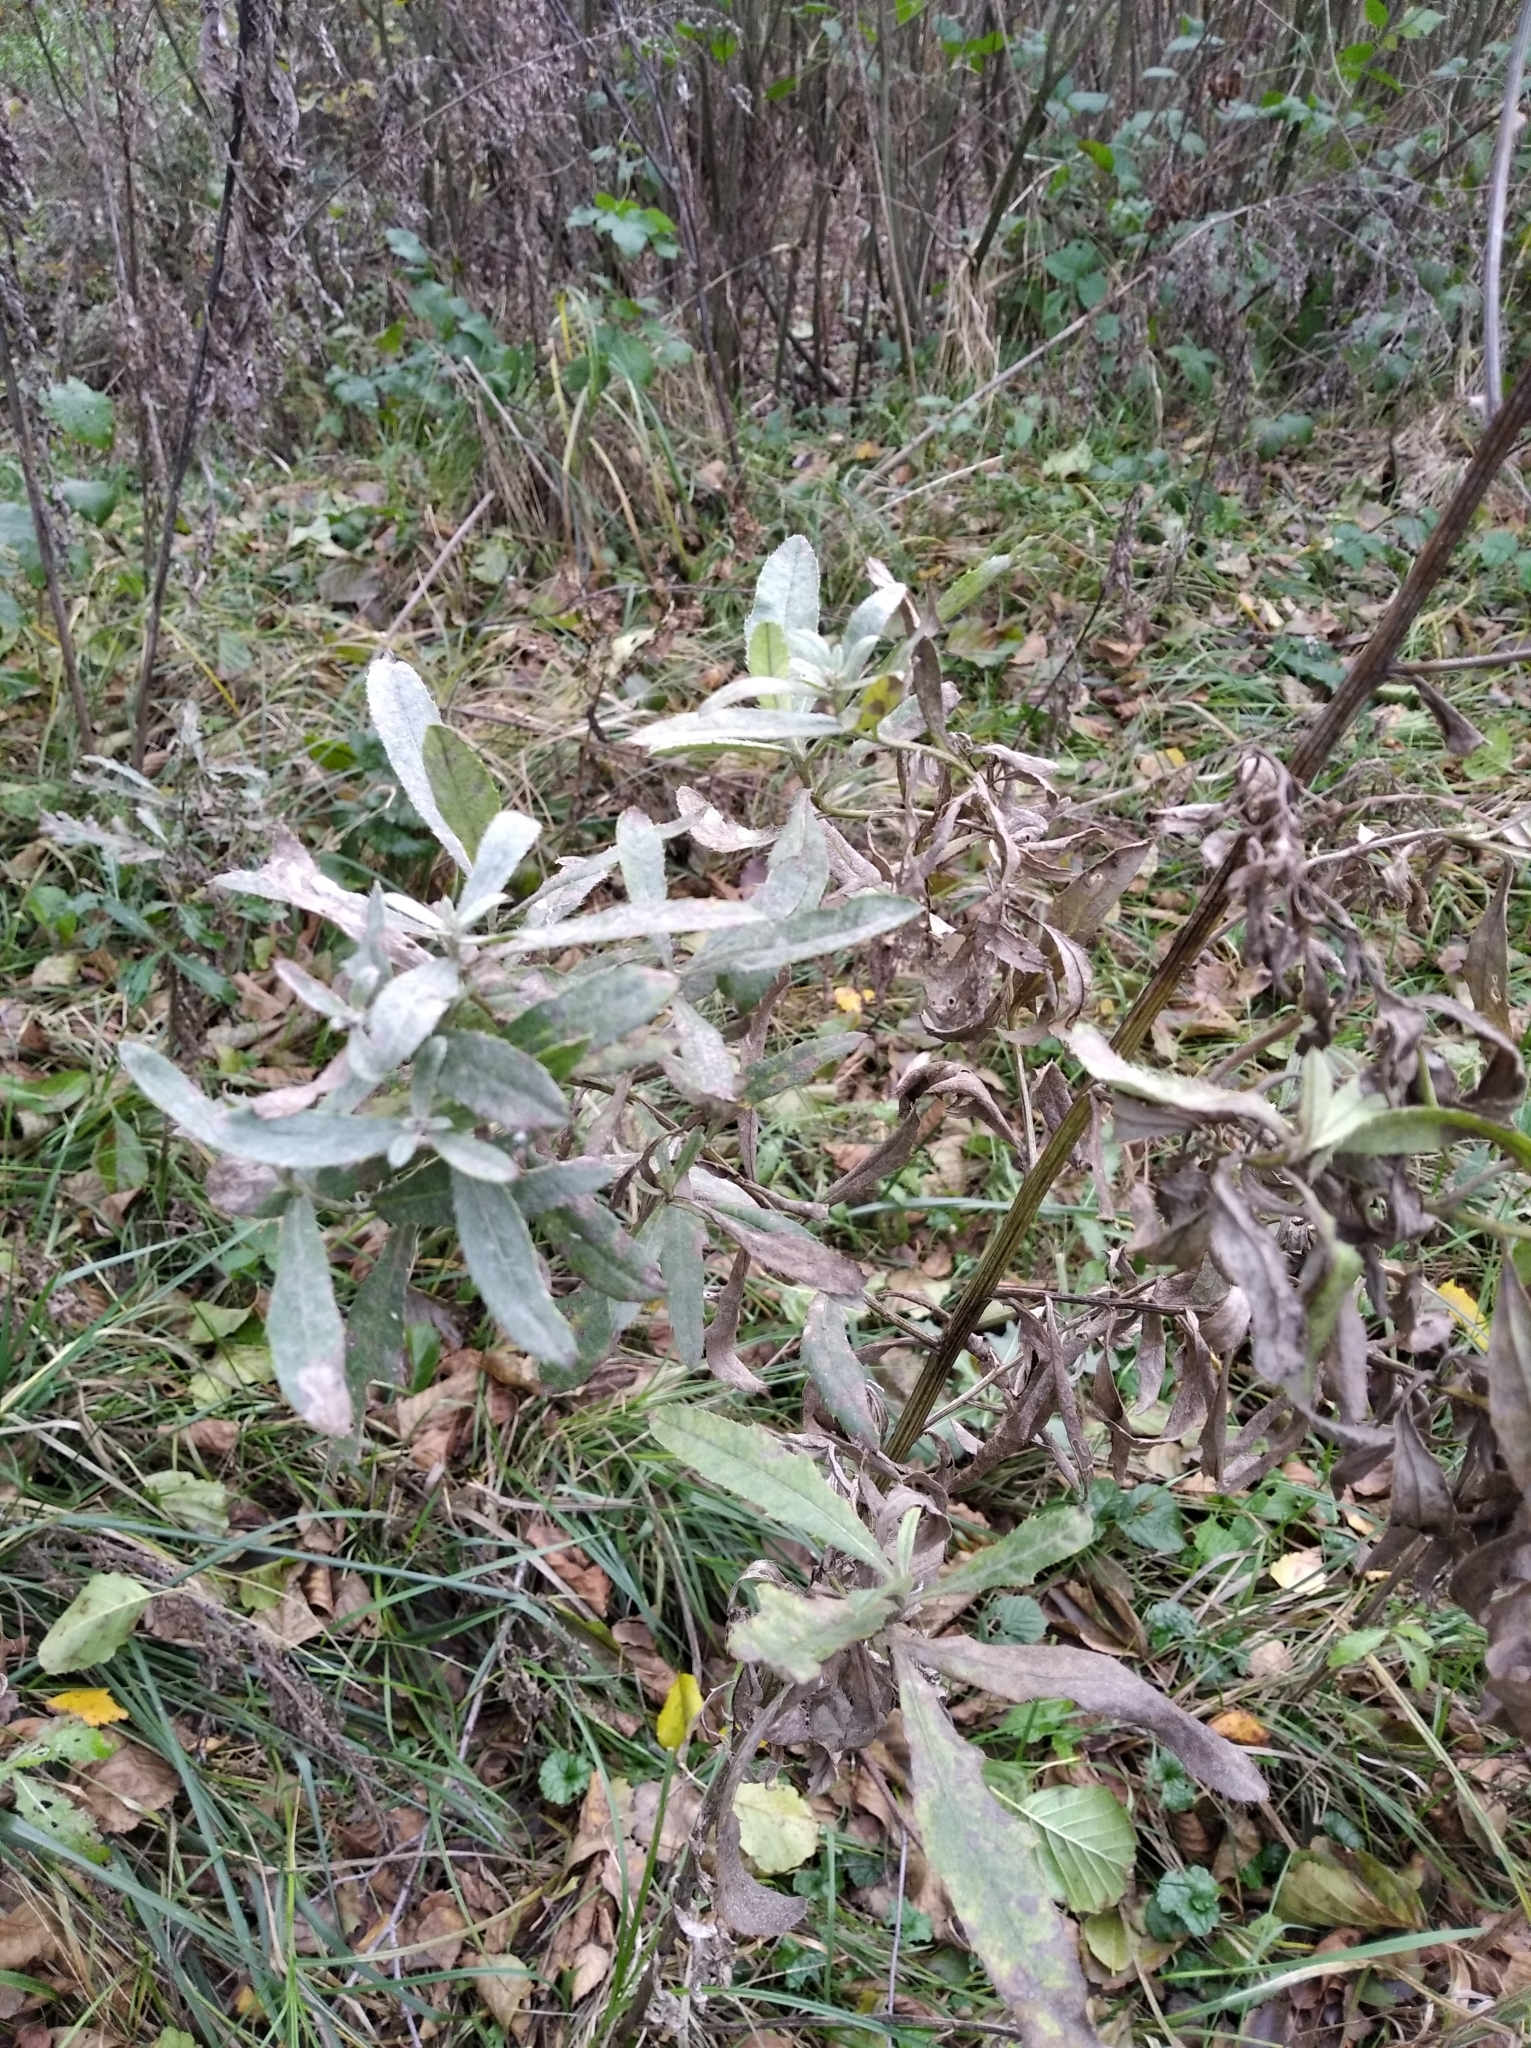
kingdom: Plantae
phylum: Tracheophyta
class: Magnoliopsida
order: Asterales
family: Asteraceae
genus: Cirsium
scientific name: Cirsium arvense
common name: Creeping thistle
